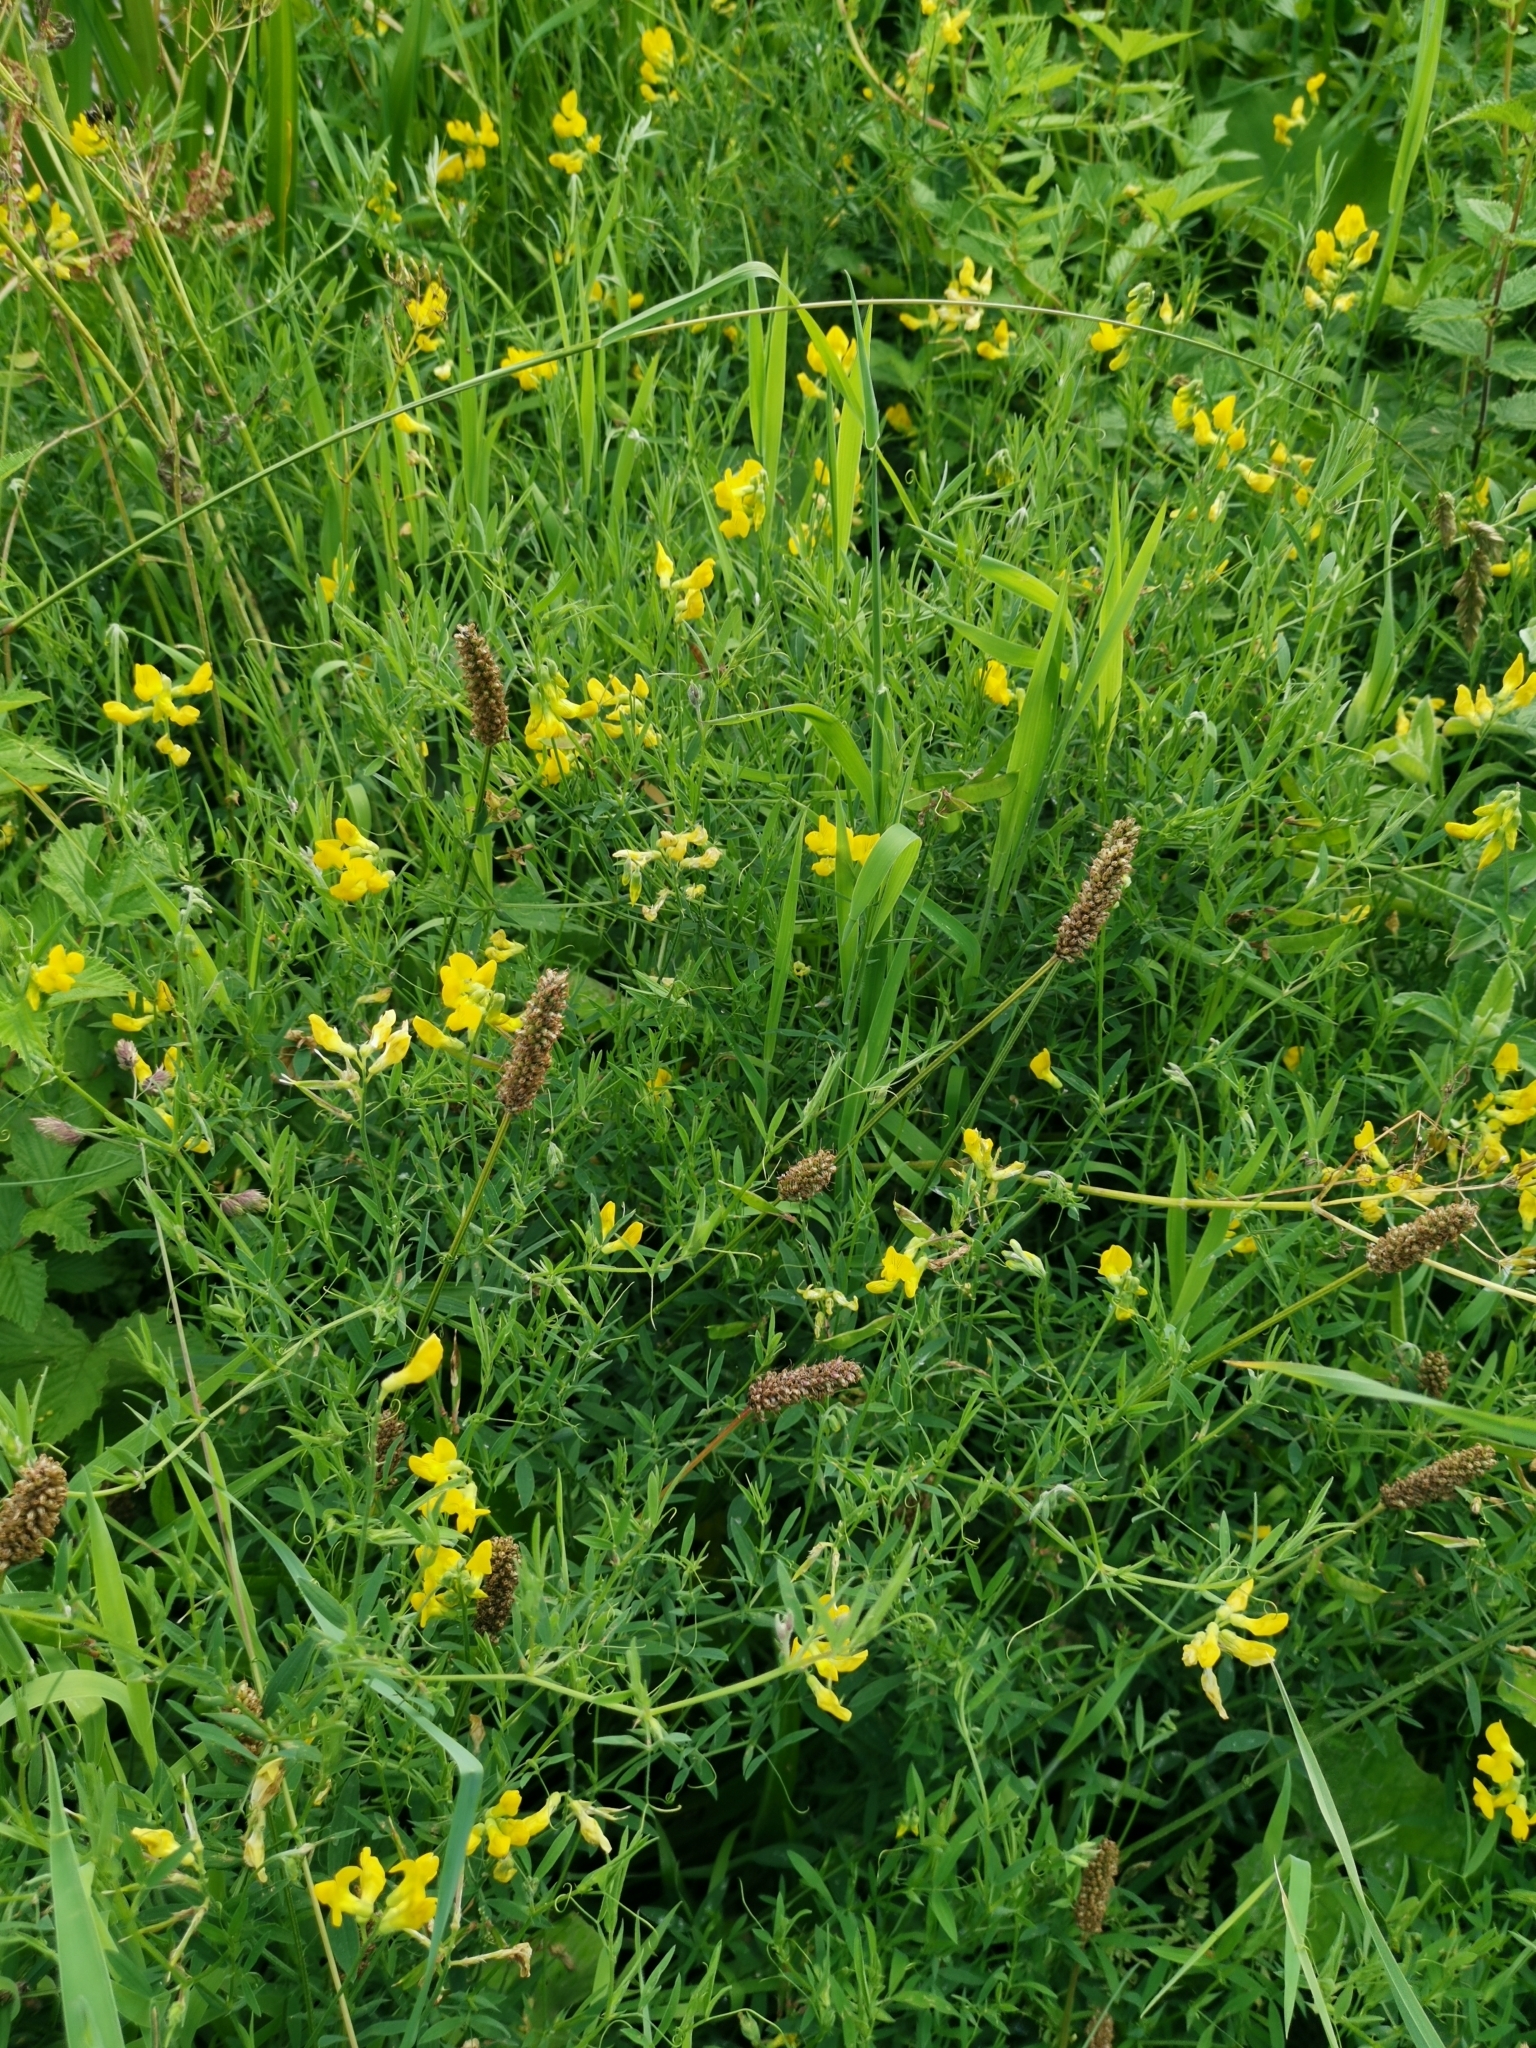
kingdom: Plantae
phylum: Tracheophyta
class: Magnoliopsida
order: Fabales
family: Fabaceae
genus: Lathyrus
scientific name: Lathyrus pratensis
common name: Meadow vetchling
